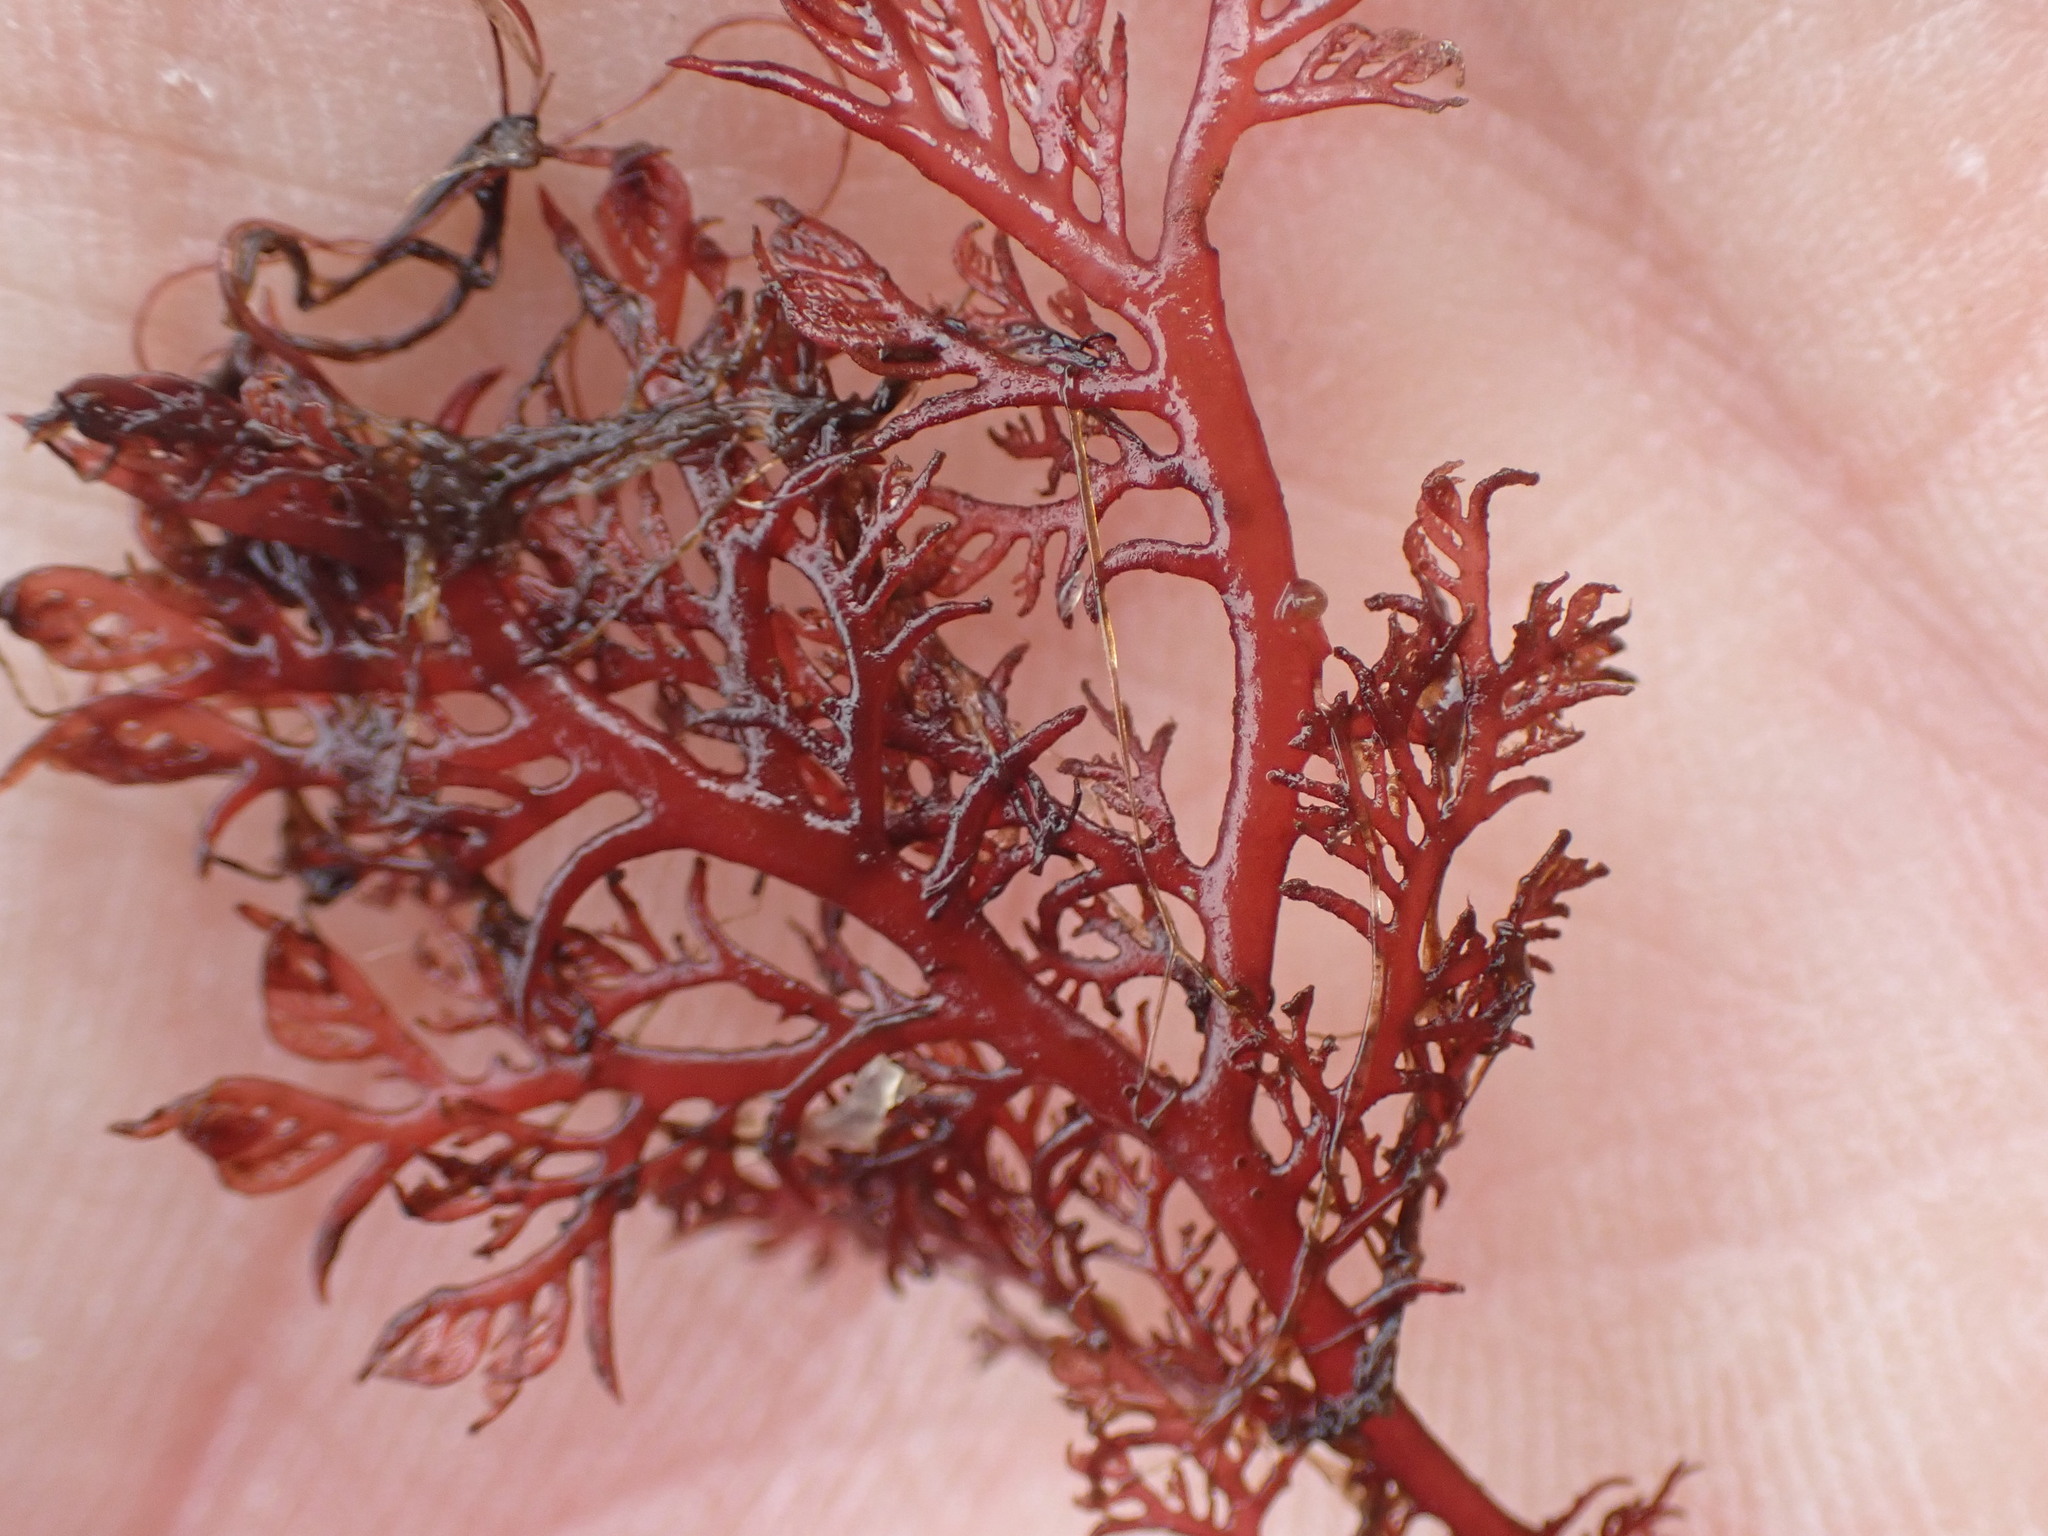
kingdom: Plantae
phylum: Rhodophyta
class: Florideophyceae
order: Plocamiales
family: Plocamiaceae
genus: Plocamium
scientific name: Plocamium cartilagineum
